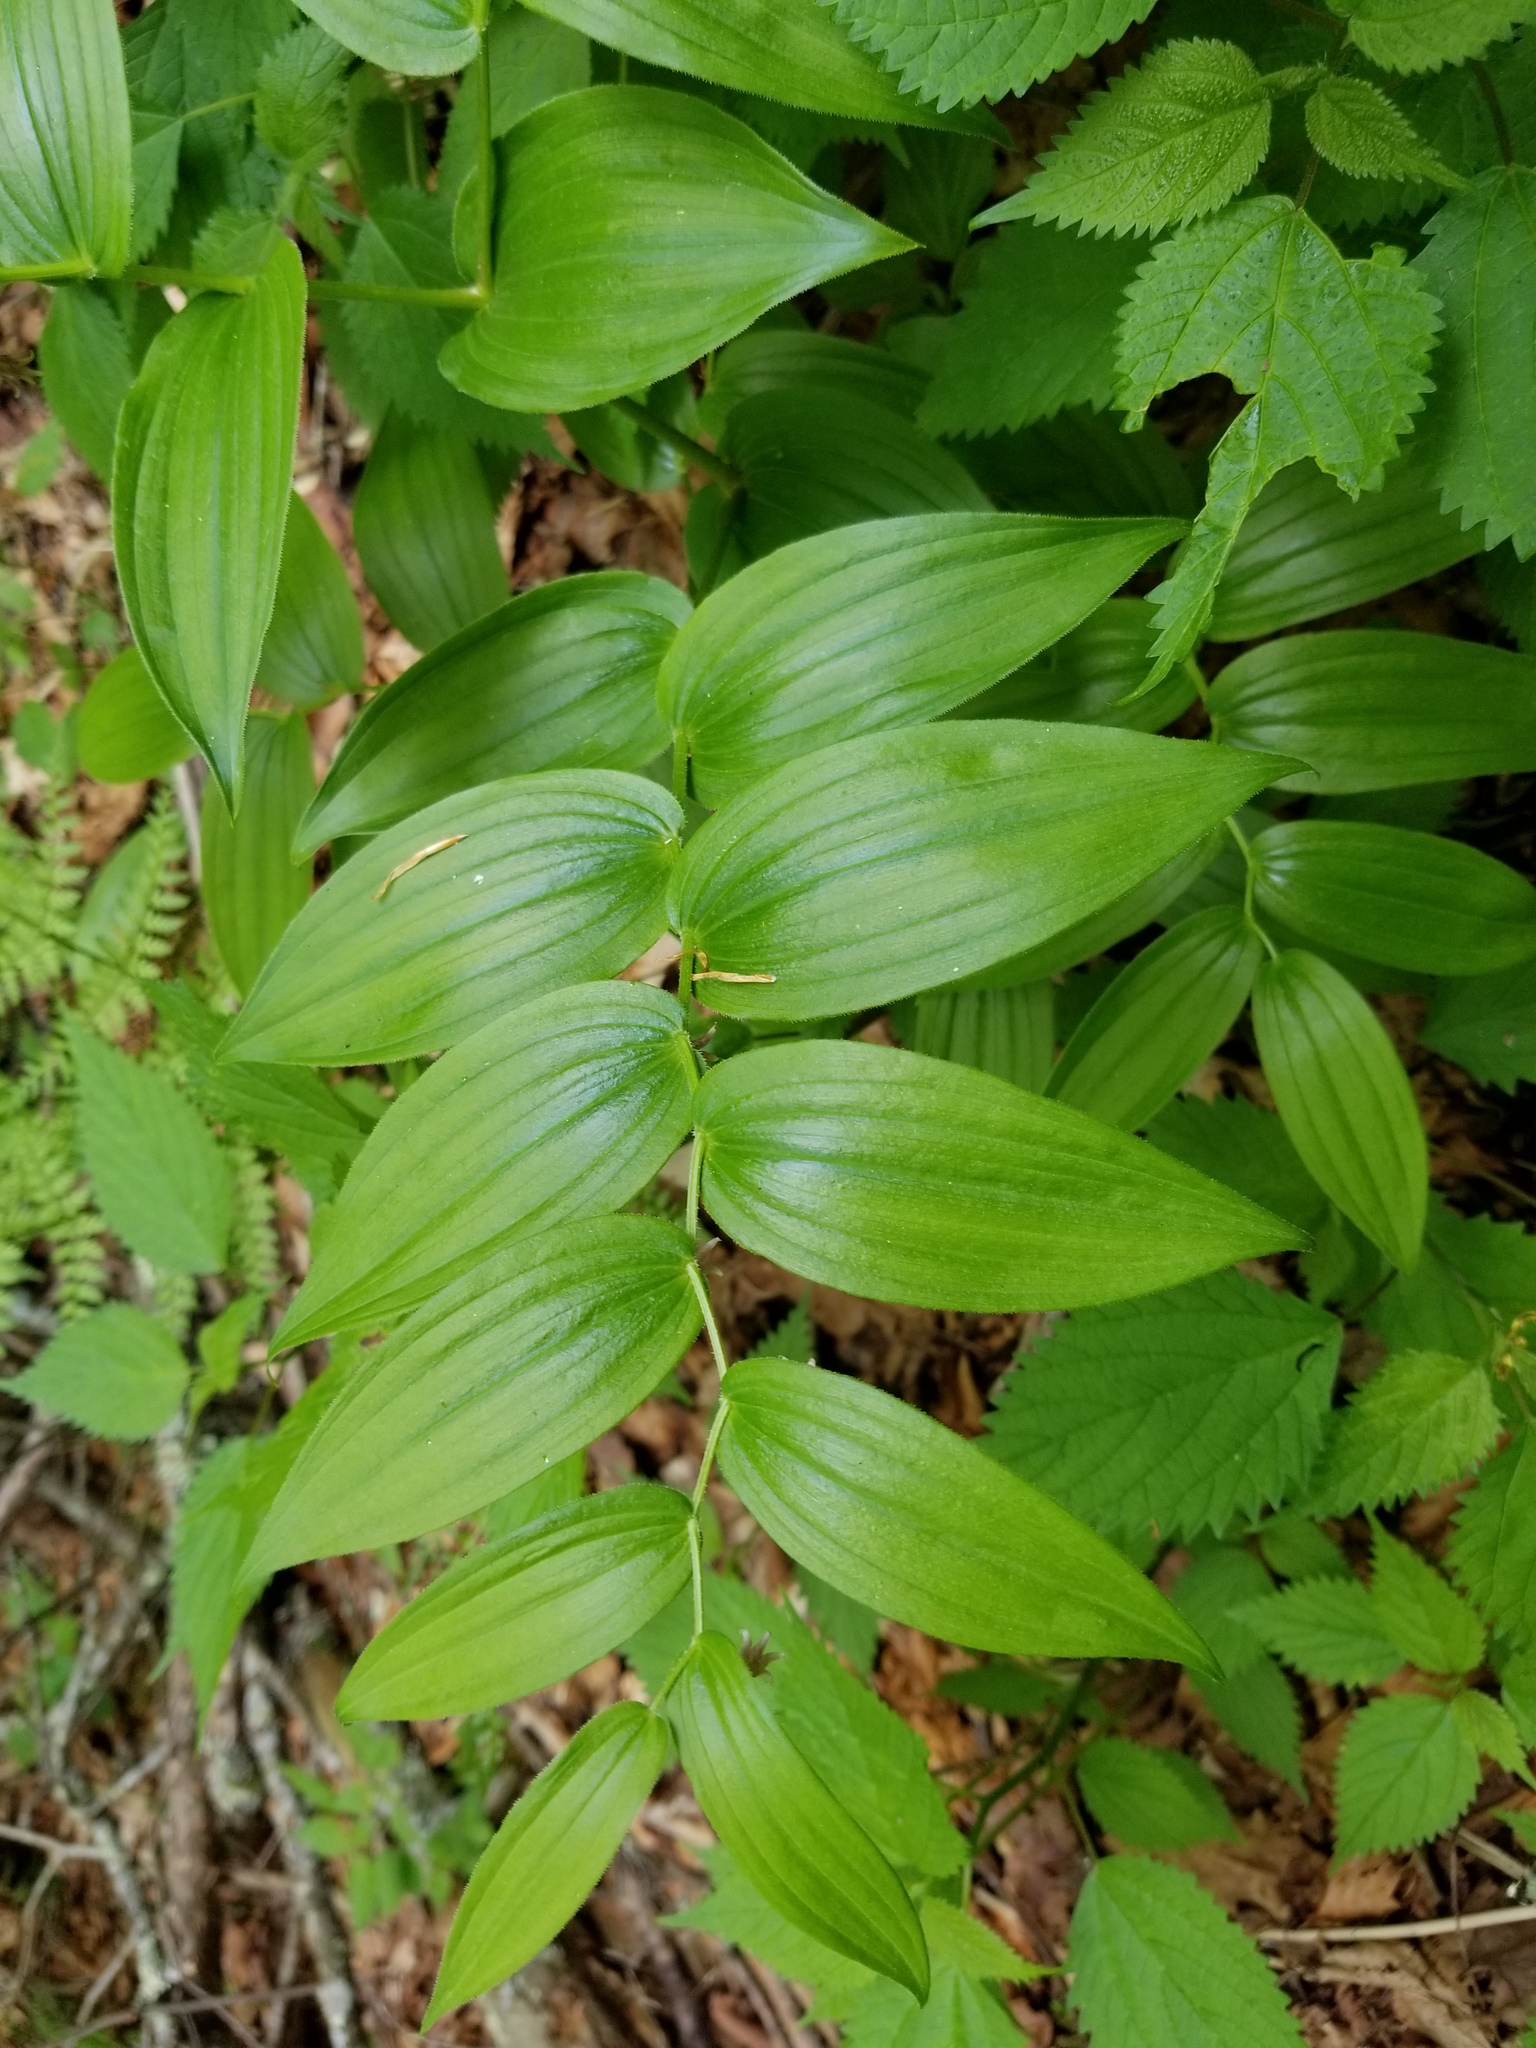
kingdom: Plantae
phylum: Tracheophyta
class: Liliopsida
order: Liliales
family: Liliaceae
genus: Streptopus
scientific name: Streptopus lanceolatus
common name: Rose mandarin
